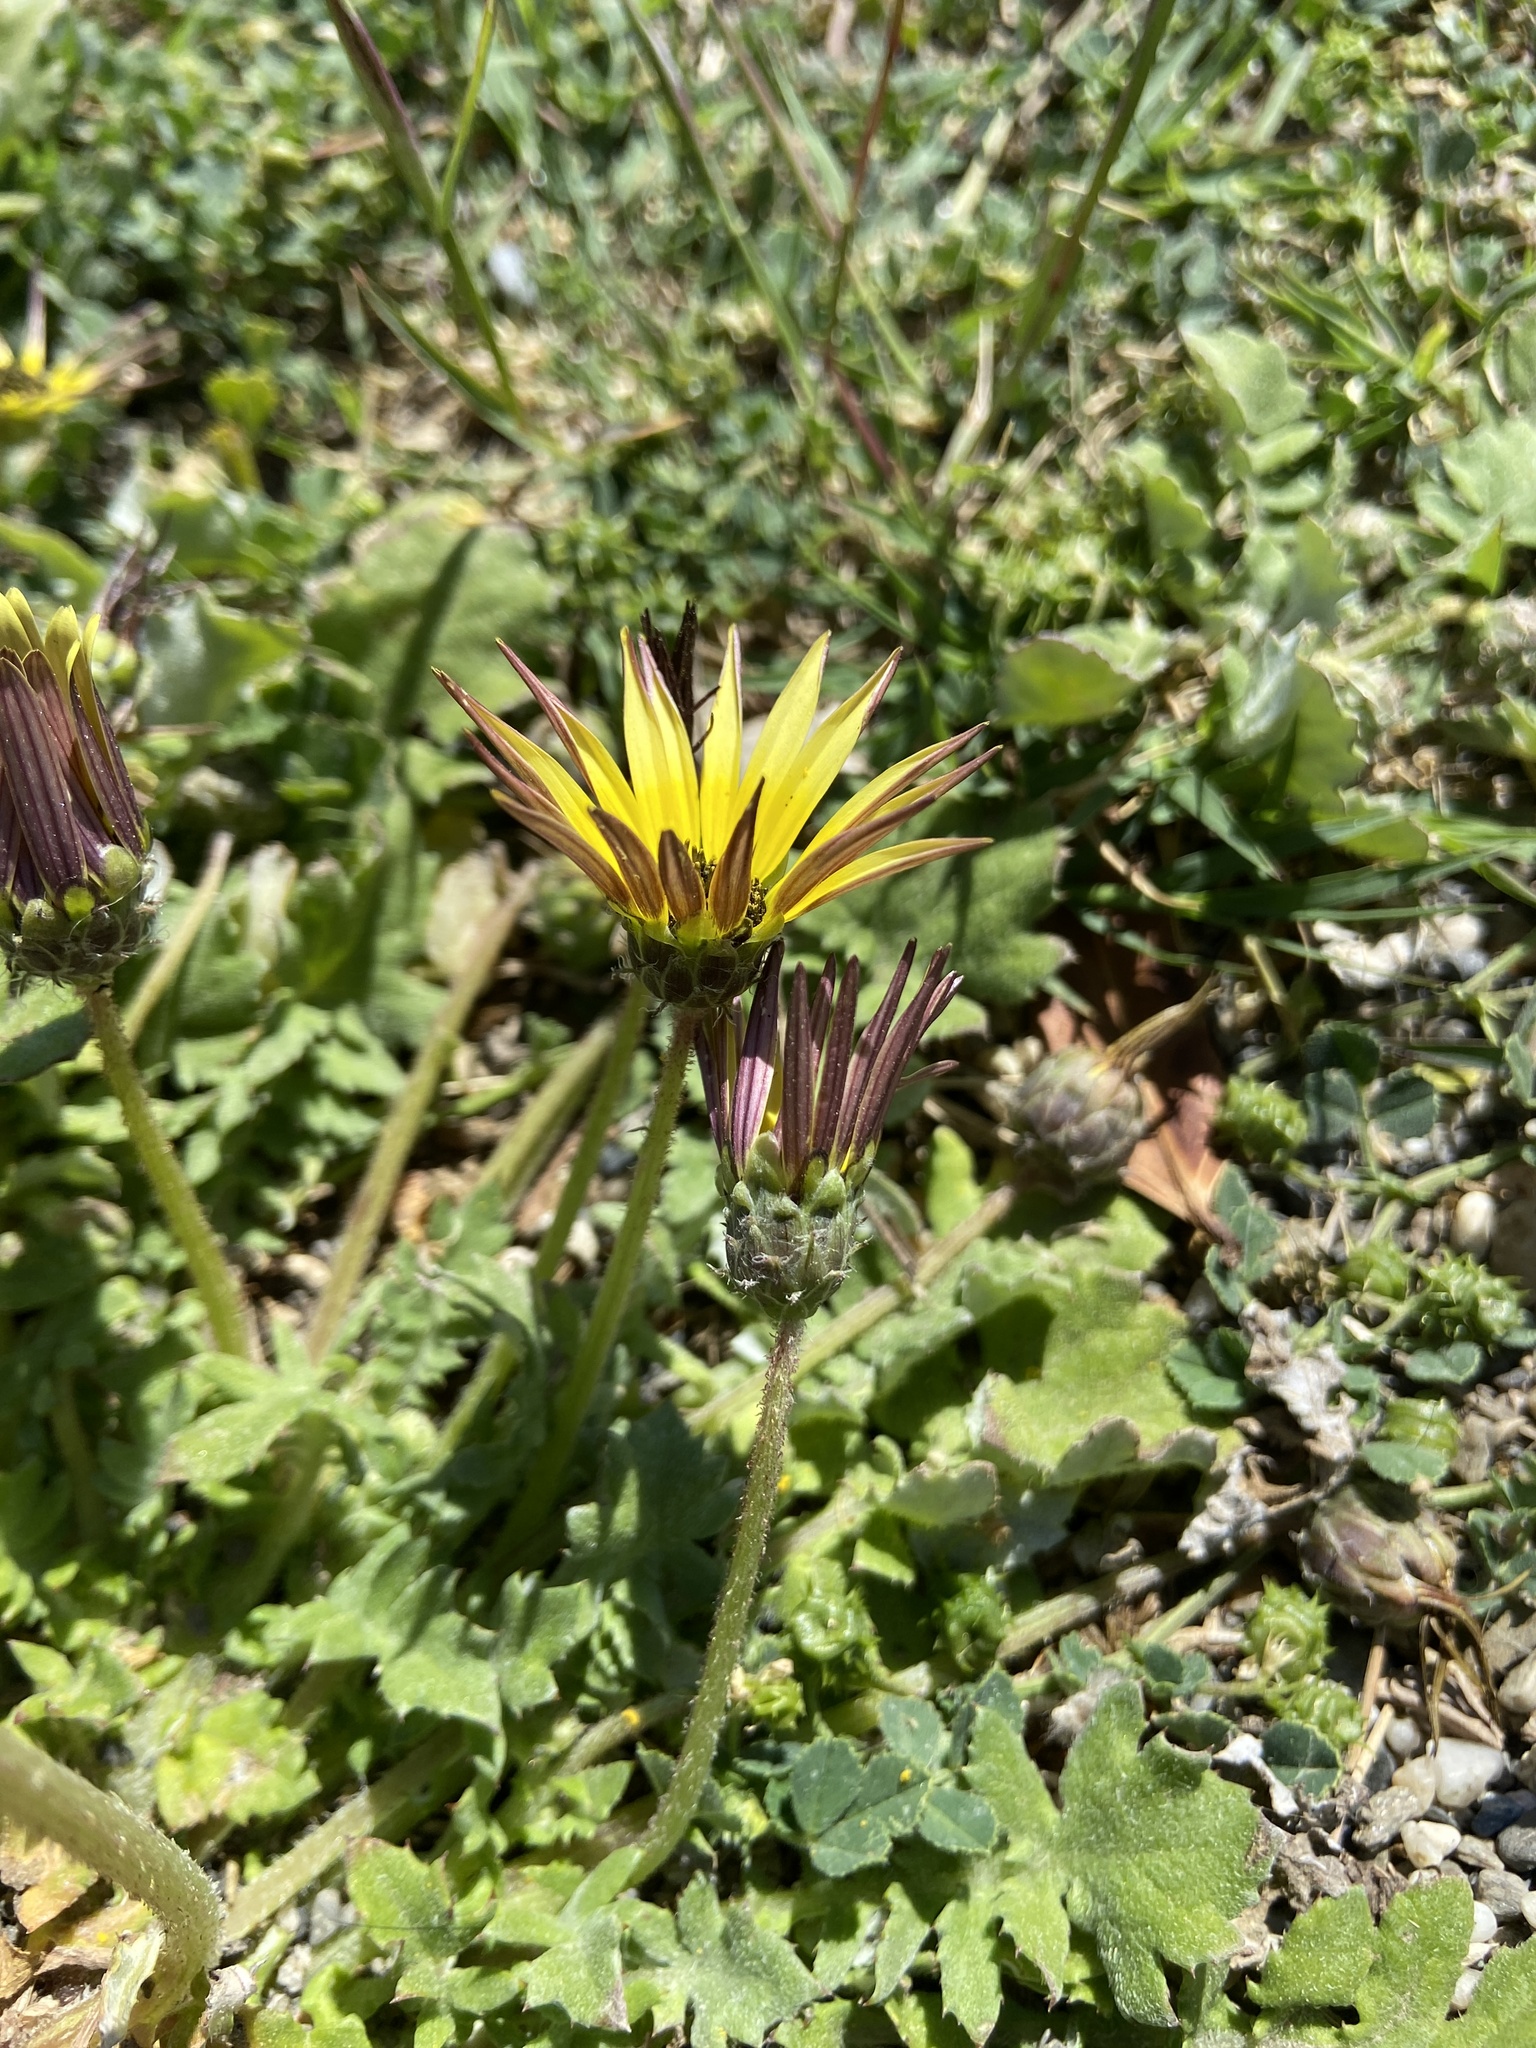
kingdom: Plantae
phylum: Tracheophyta
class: Magnoliopsida
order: Asterales
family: Asteraceae
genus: Arctotheca
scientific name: Arctotheca calendula
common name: Capeweed
